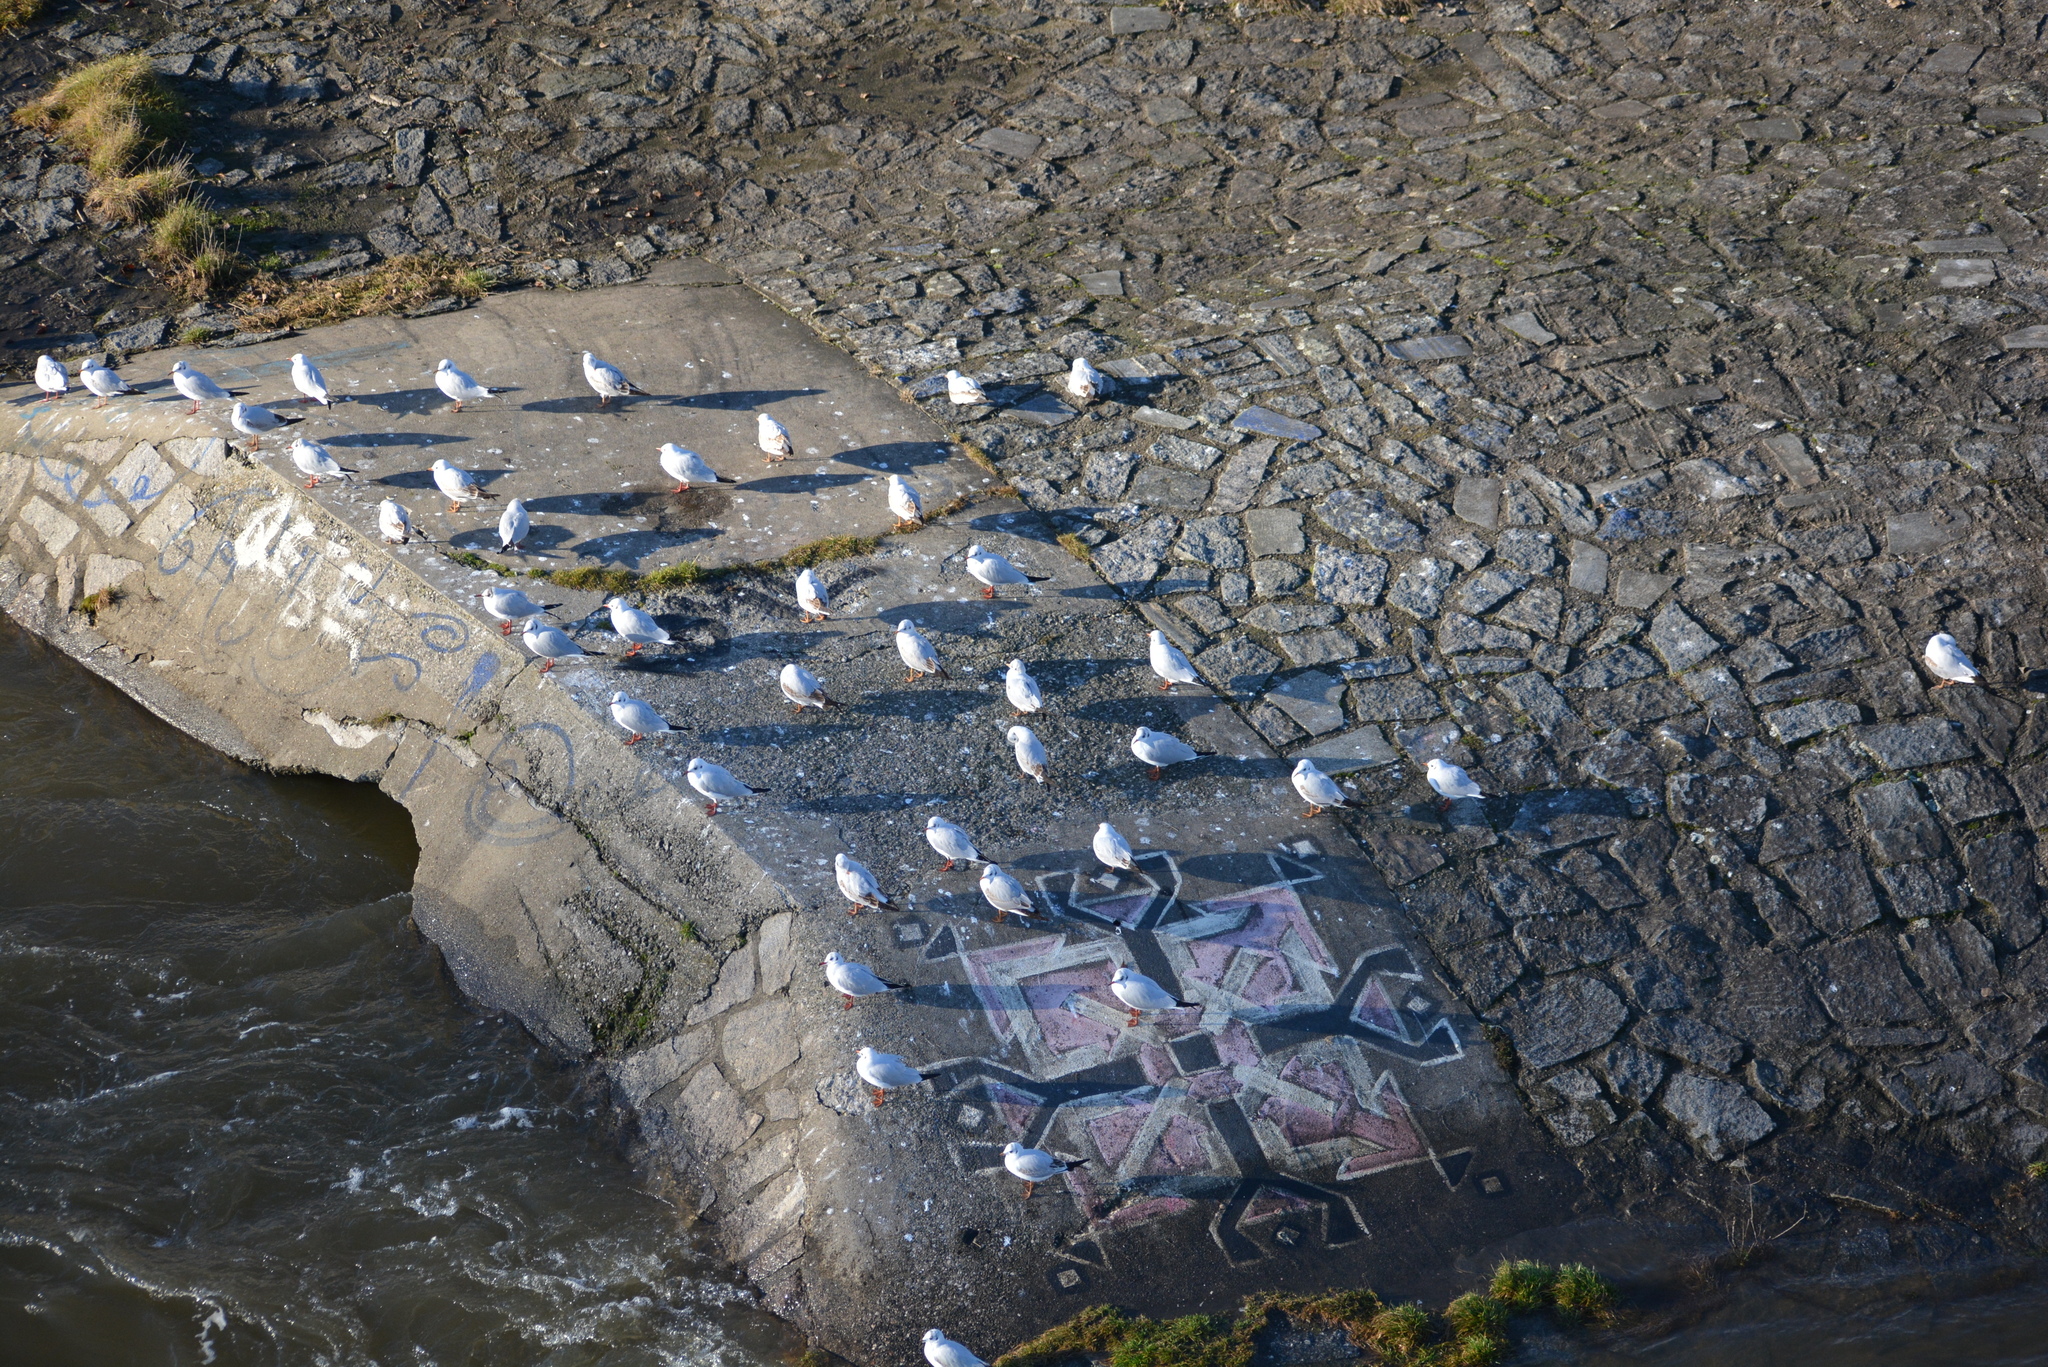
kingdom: Animalia
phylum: Chordata
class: Aves
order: Charadriiformes
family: Laridae
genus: Chroicocephalus
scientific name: Chroicocephalus ridibundus
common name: Black-headed gull
